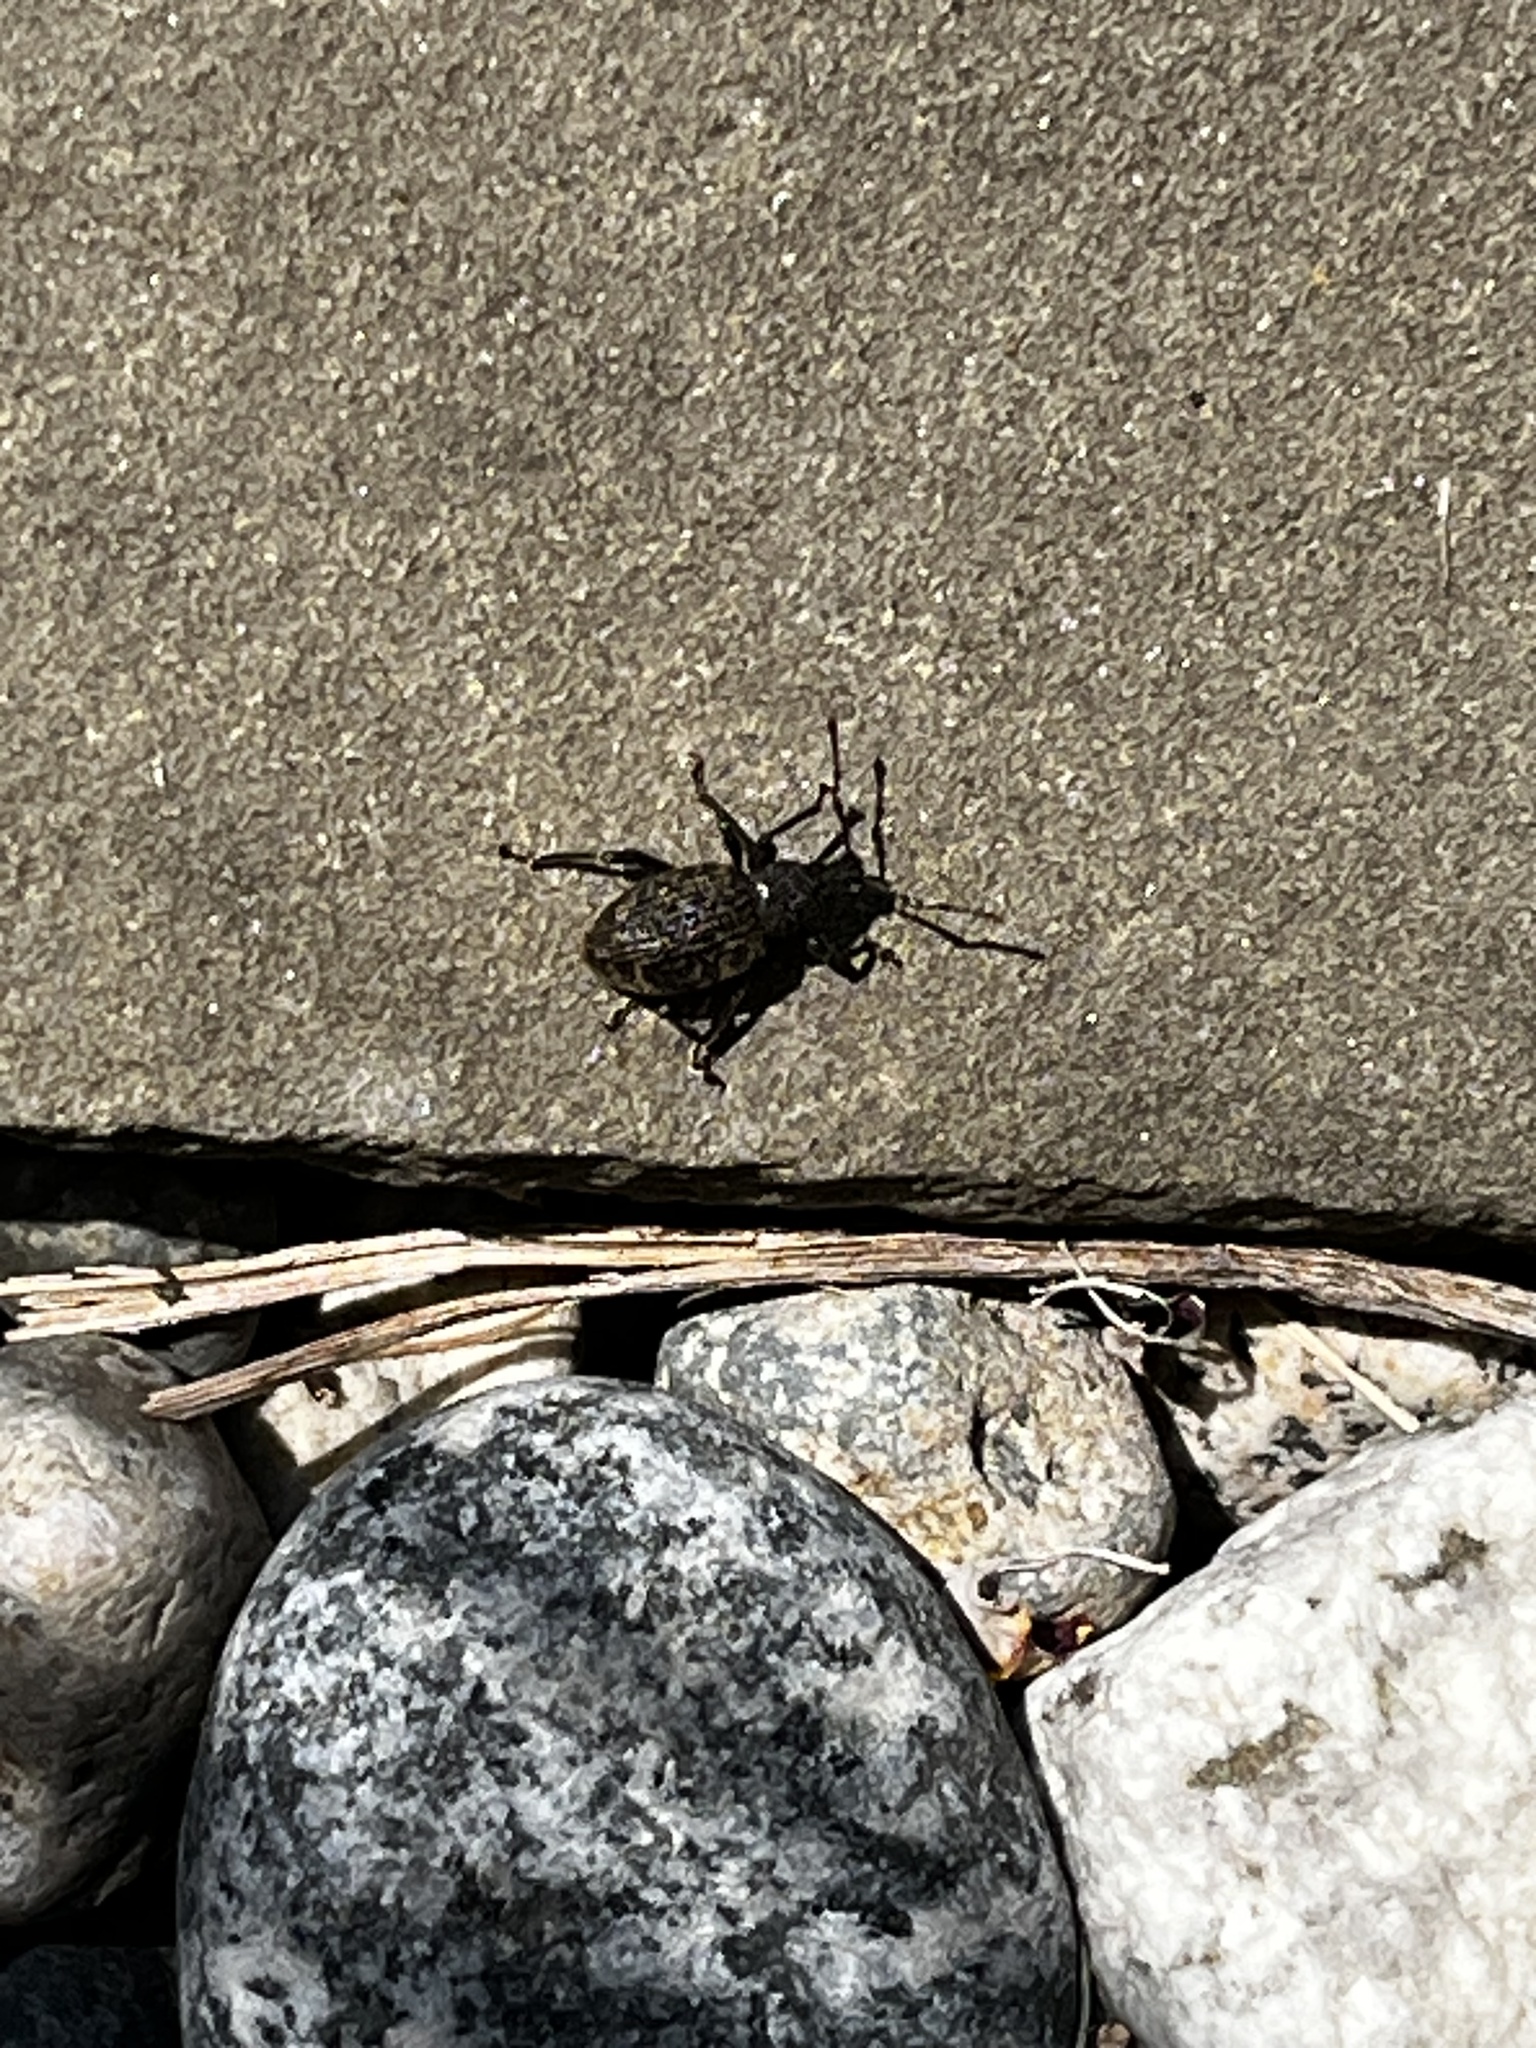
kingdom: Animalia
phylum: Arthropoda
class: Insecta
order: Coleoptera
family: Curculionidae
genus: Otiorhynchus
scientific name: Otiorhynchus sulcatus
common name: Black vine weevil
